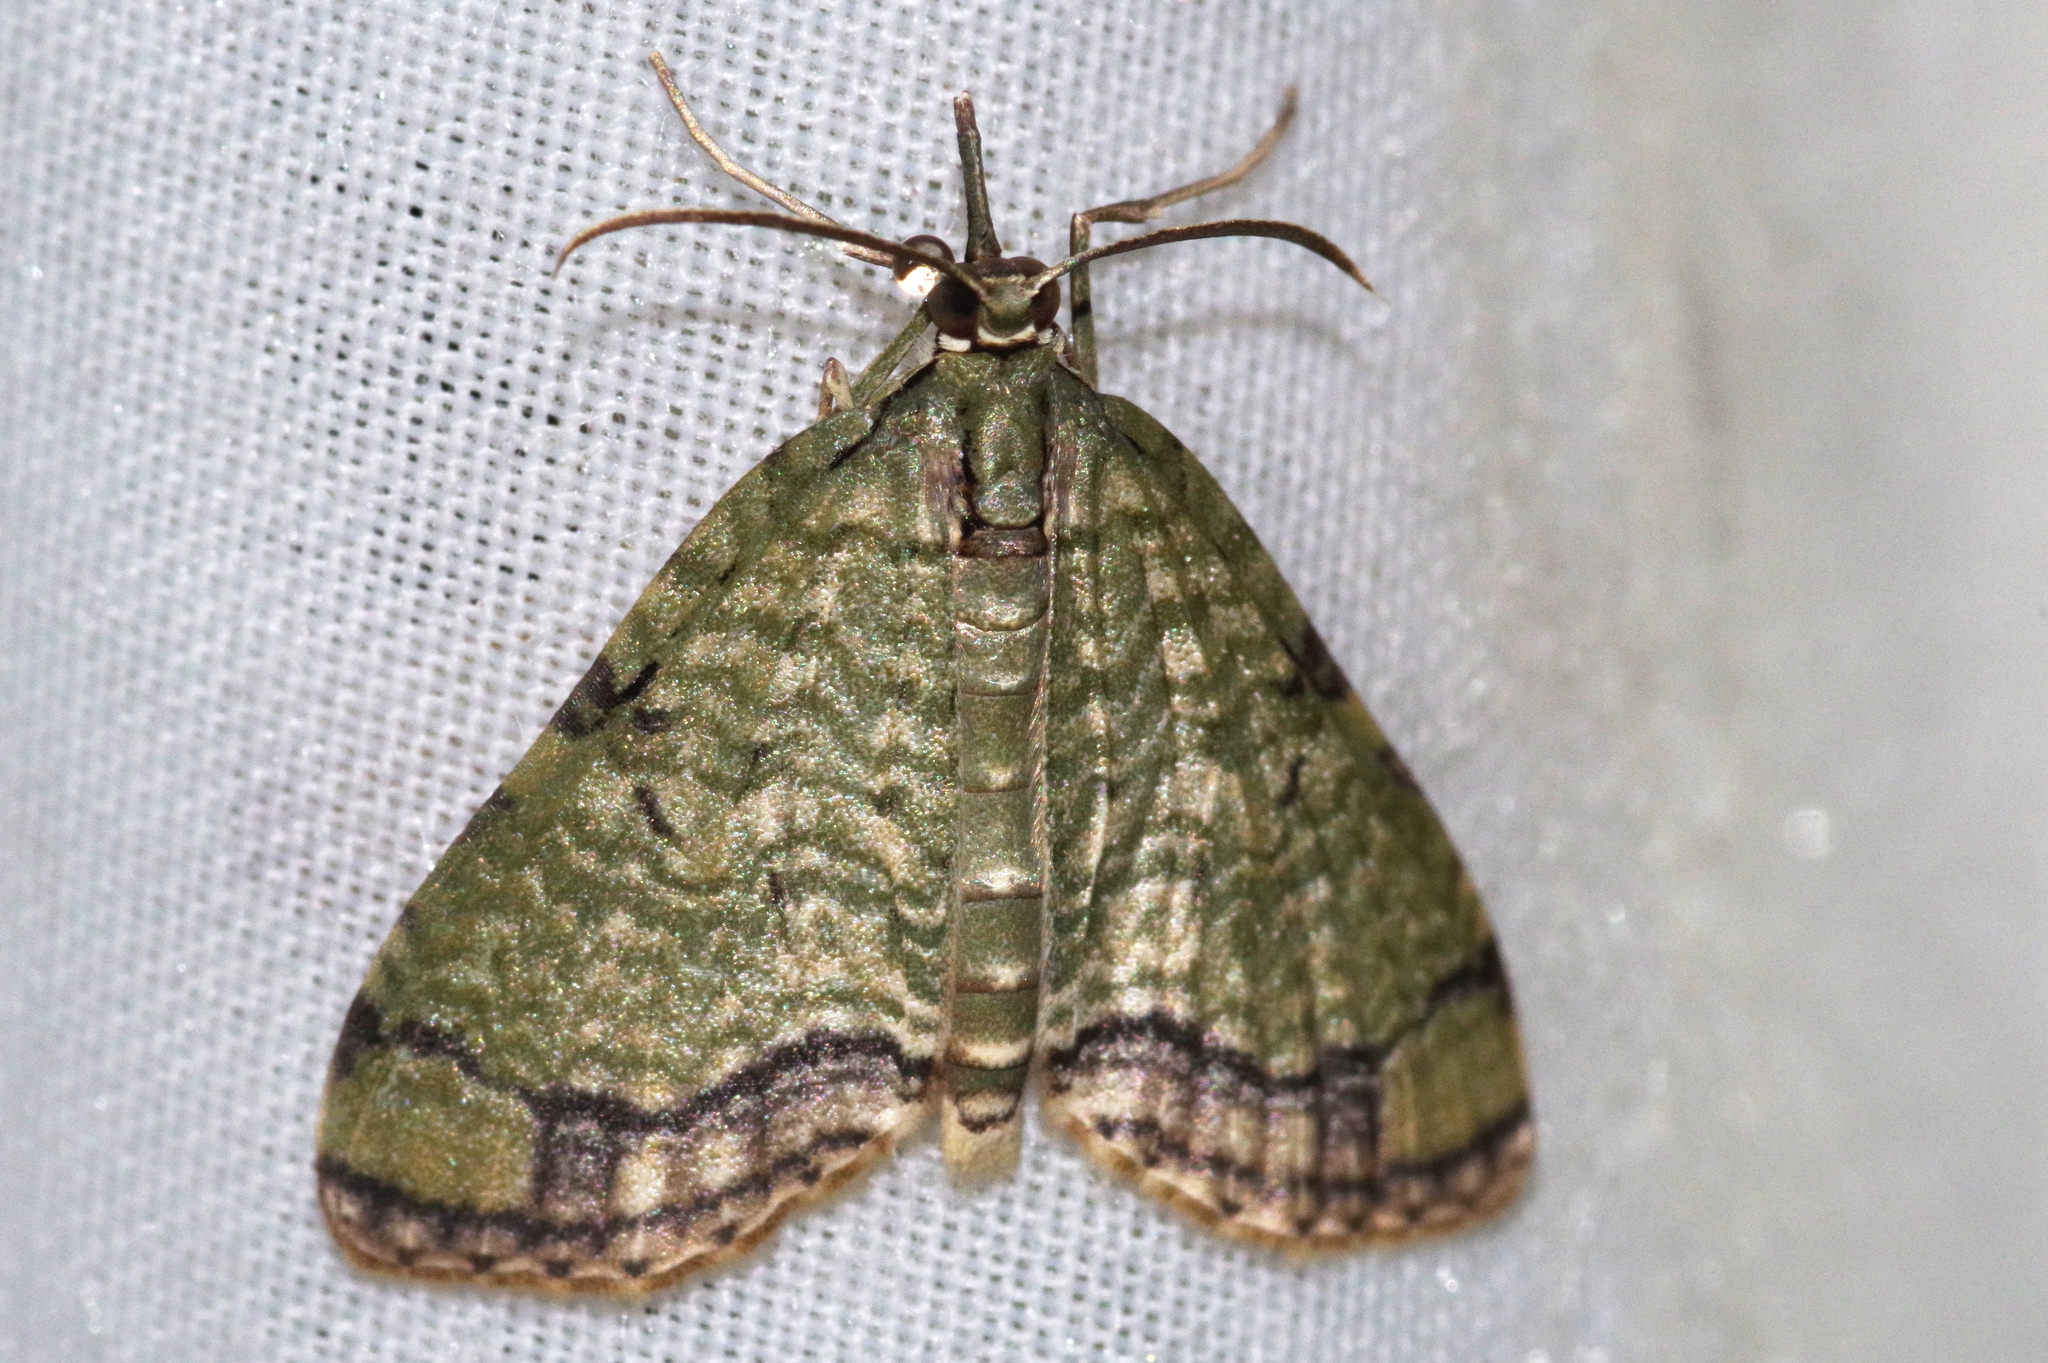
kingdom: Animalia
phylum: Arthropoda
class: Insecta
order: Lepidoptera
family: Geometridae
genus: Episteira
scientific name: Episteira nigrilinearia
